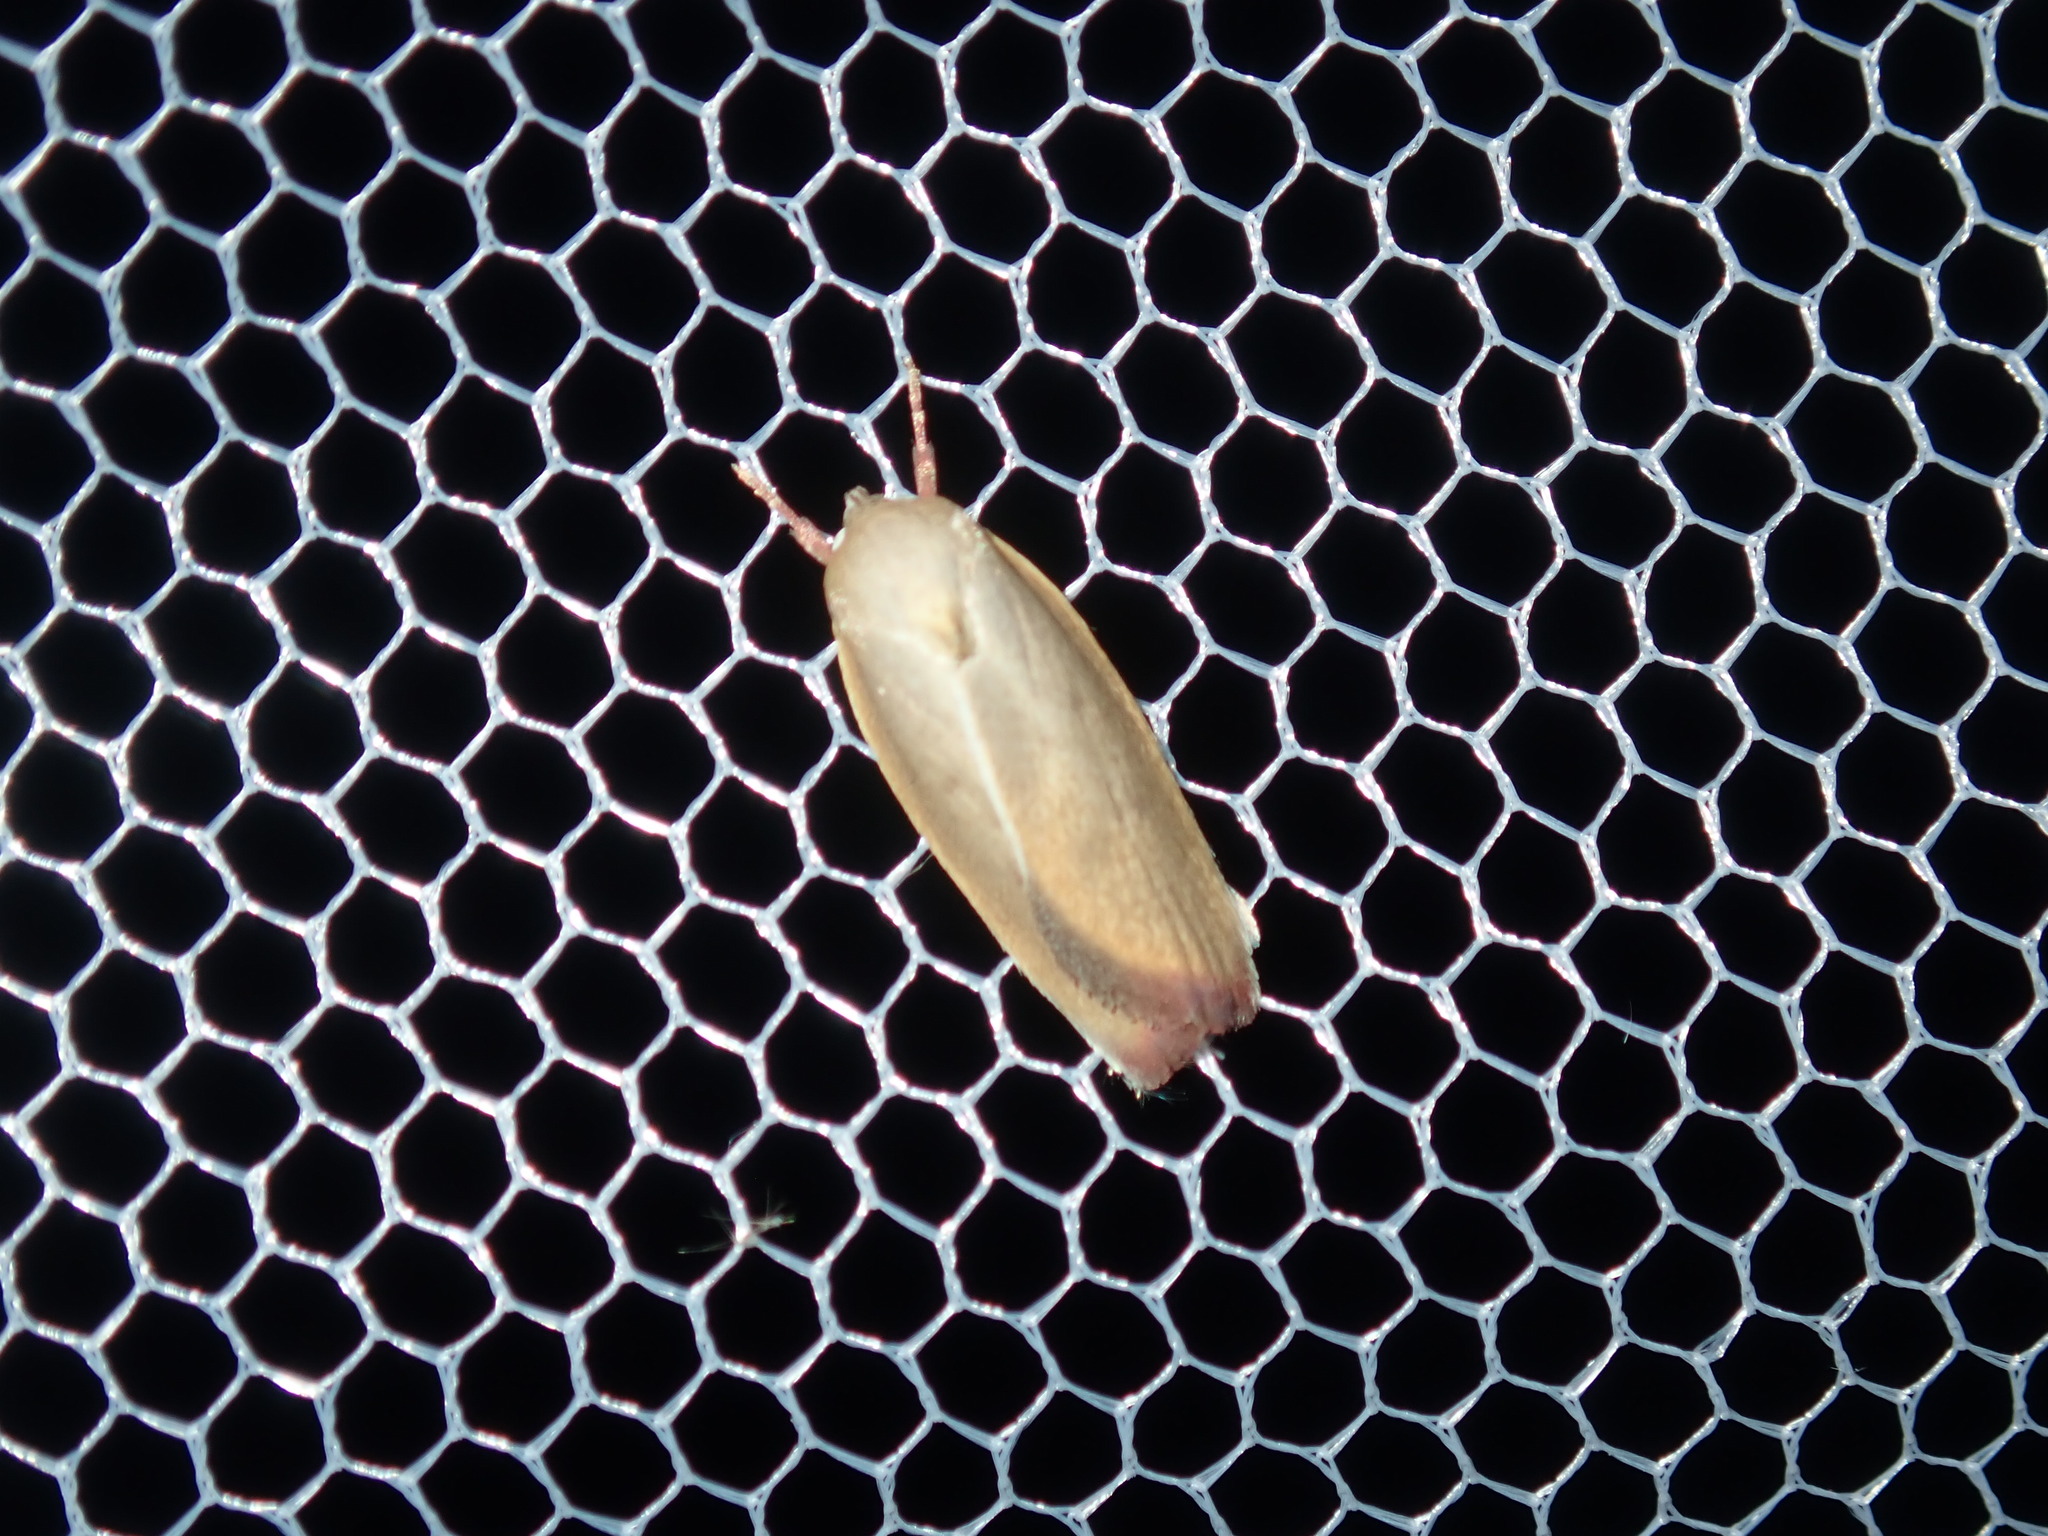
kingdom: Animalia
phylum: Arthropoda
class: Insecta
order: Lepidoptera
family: Oecophoridae
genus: Ptyoptila
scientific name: Ptyoptila matutinella
